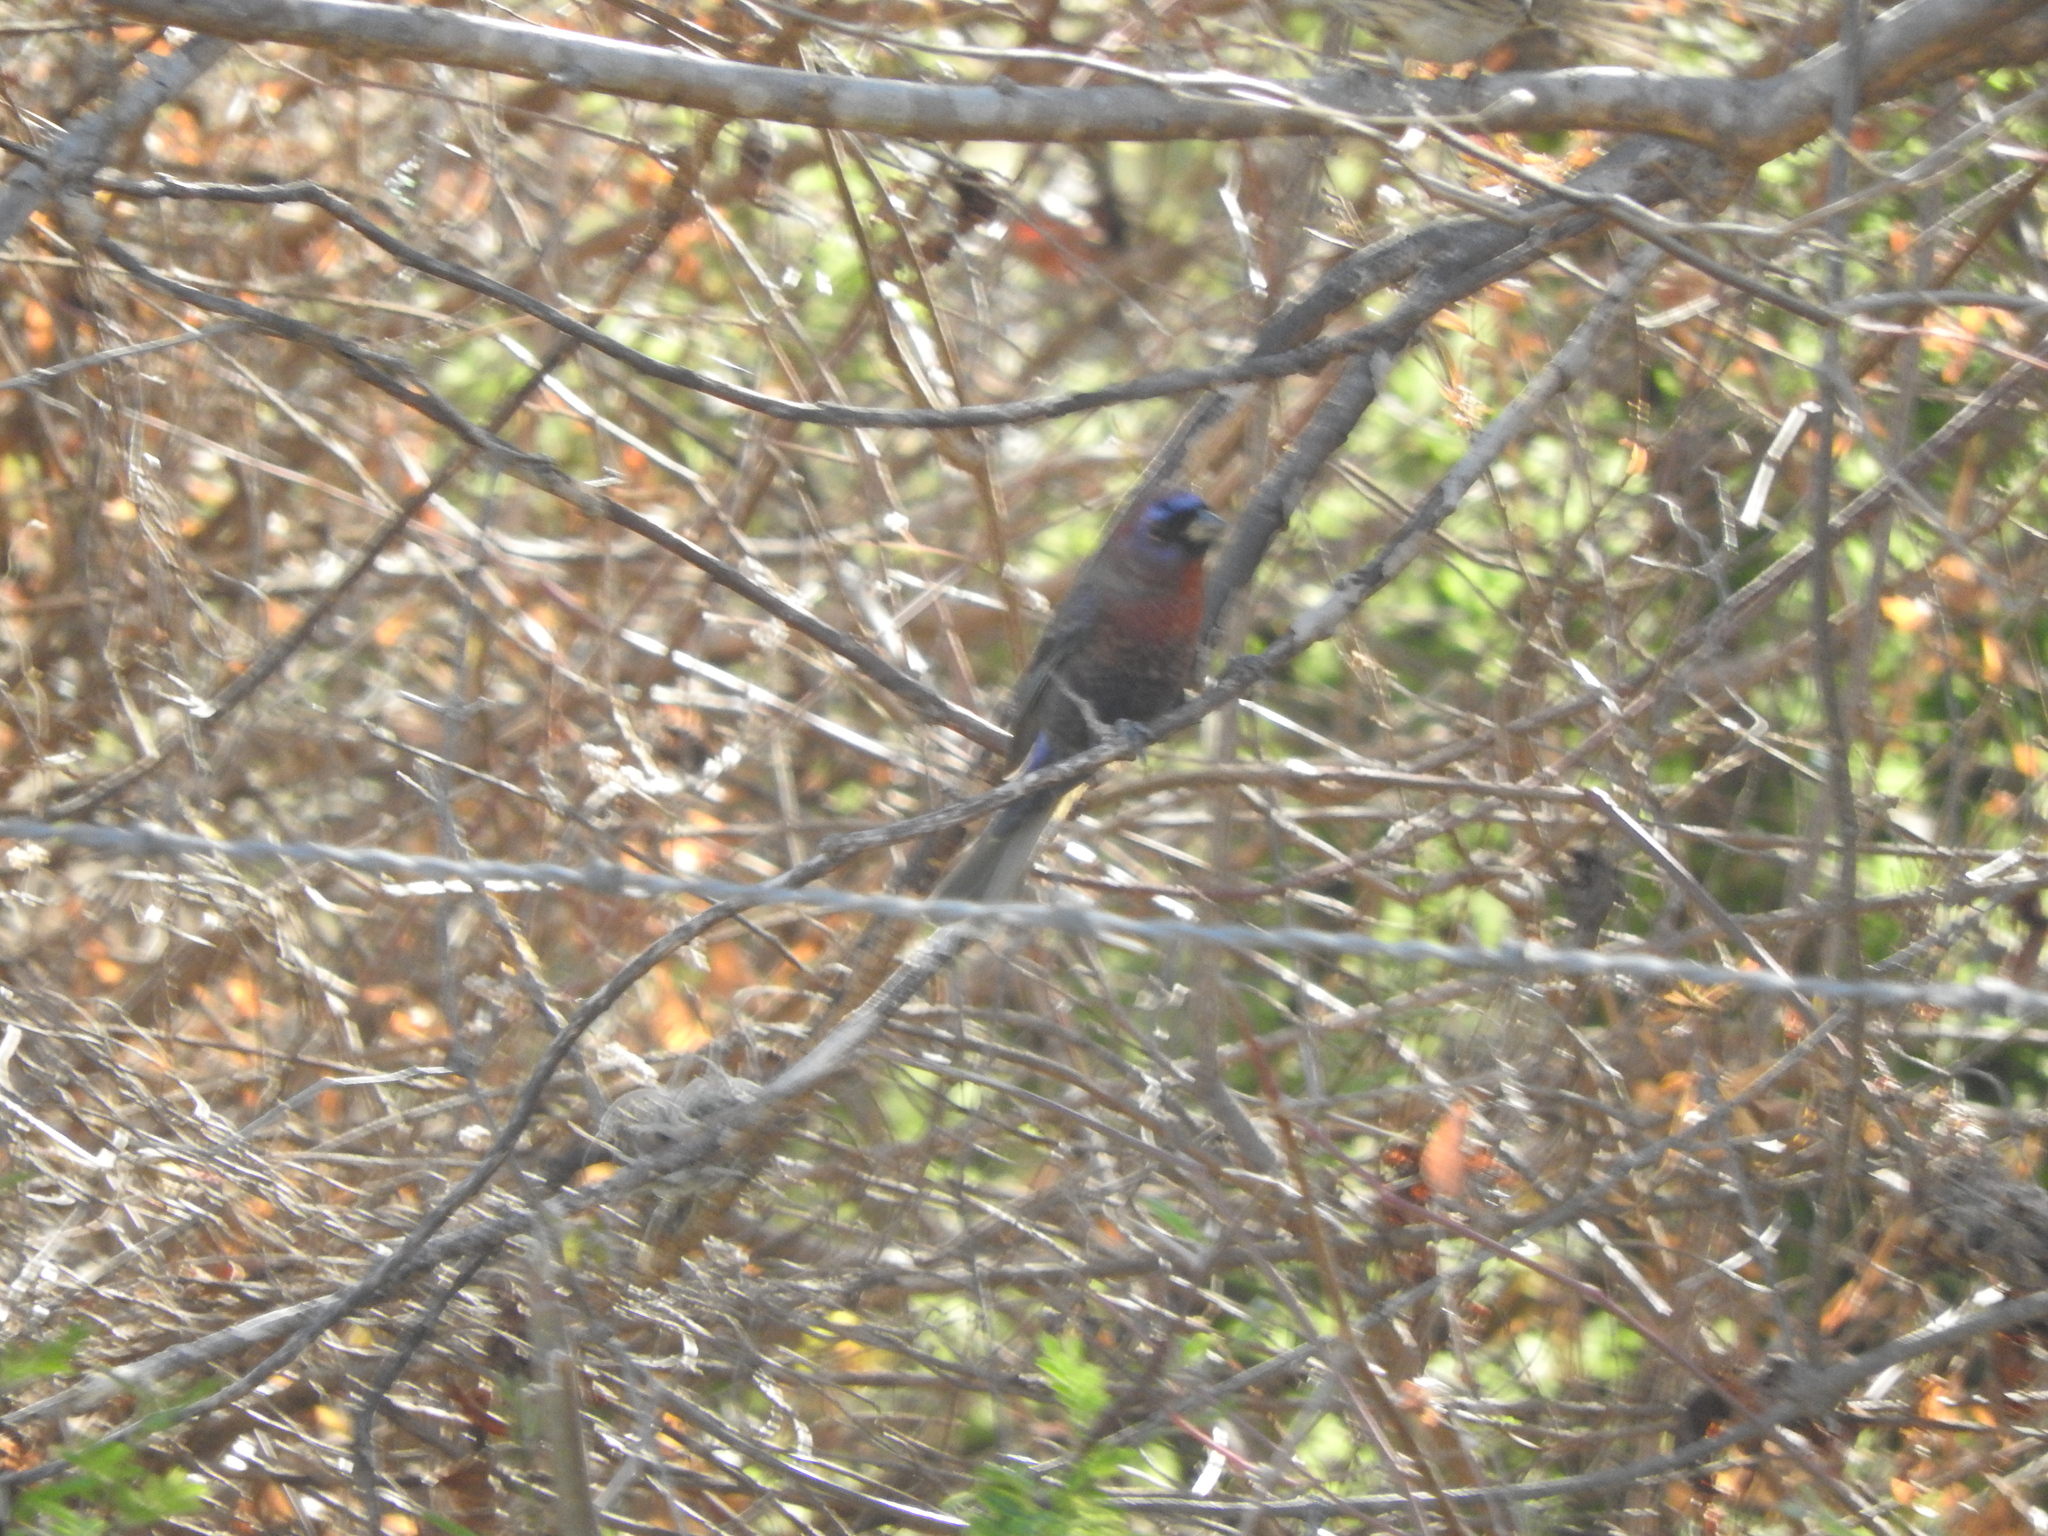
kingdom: Animalia
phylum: Chordata
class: Aves
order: Passeriformes
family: Cardinalidae
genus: Passerina
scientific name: Passerina versicolor
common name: Varied bunting
